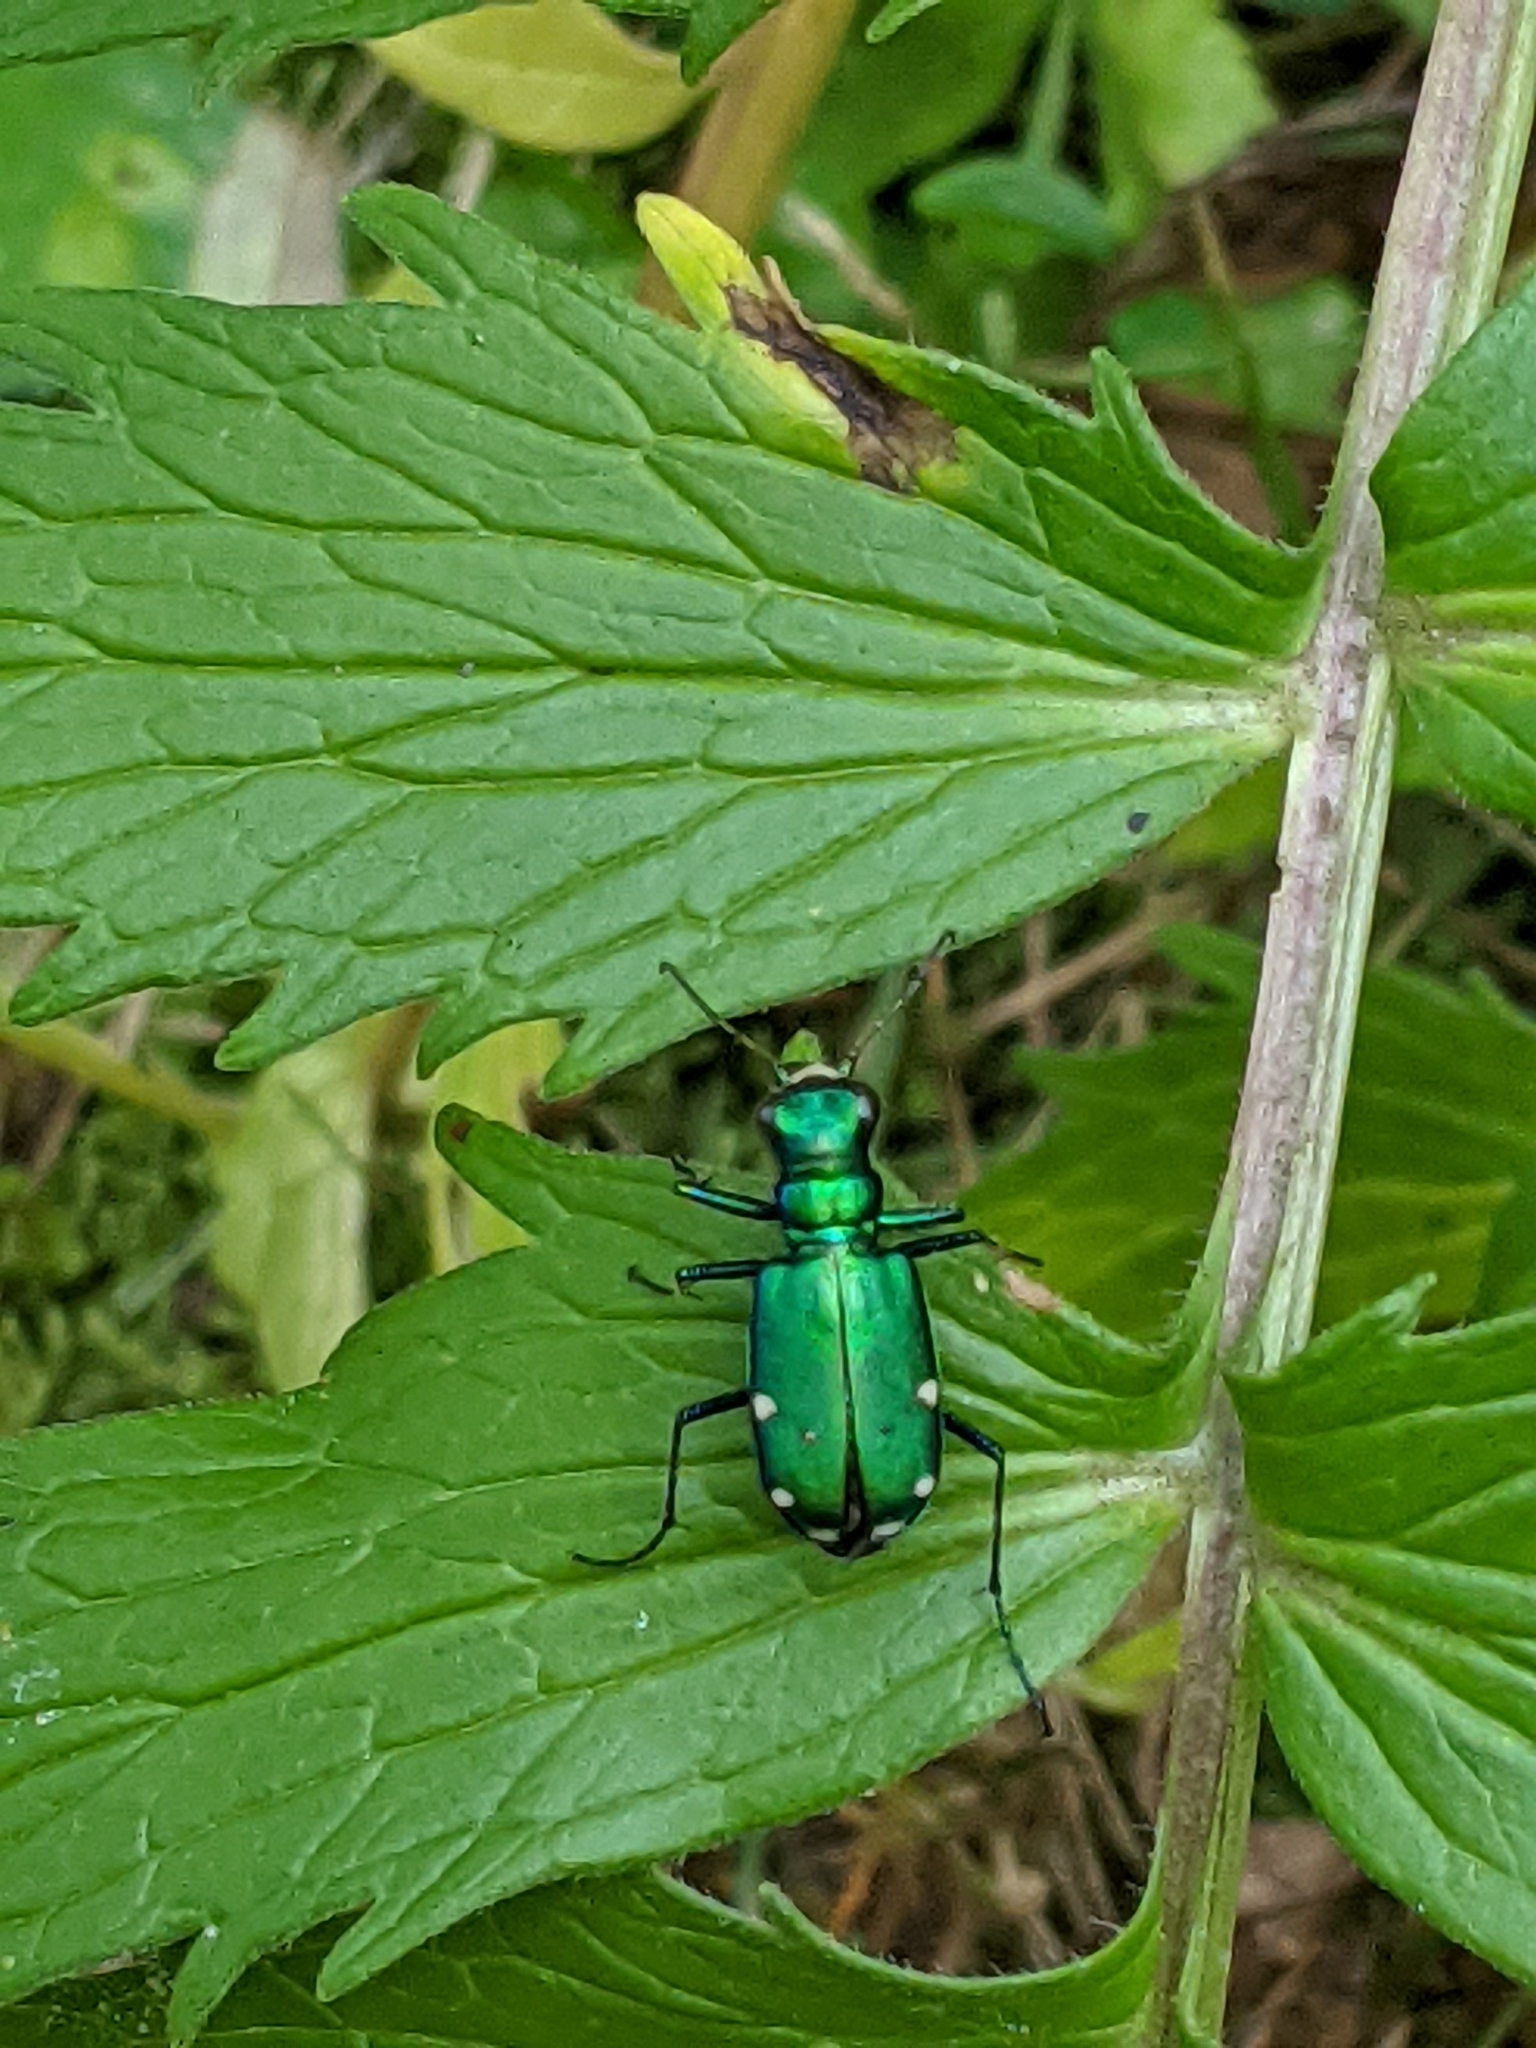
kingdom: Animalia
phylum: Arthropoda
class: Insecta
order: Coleoptera
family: Carabidae
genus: Cicindela
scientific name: Cicindela sexguttata
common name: Six-spotted tiger beetle
